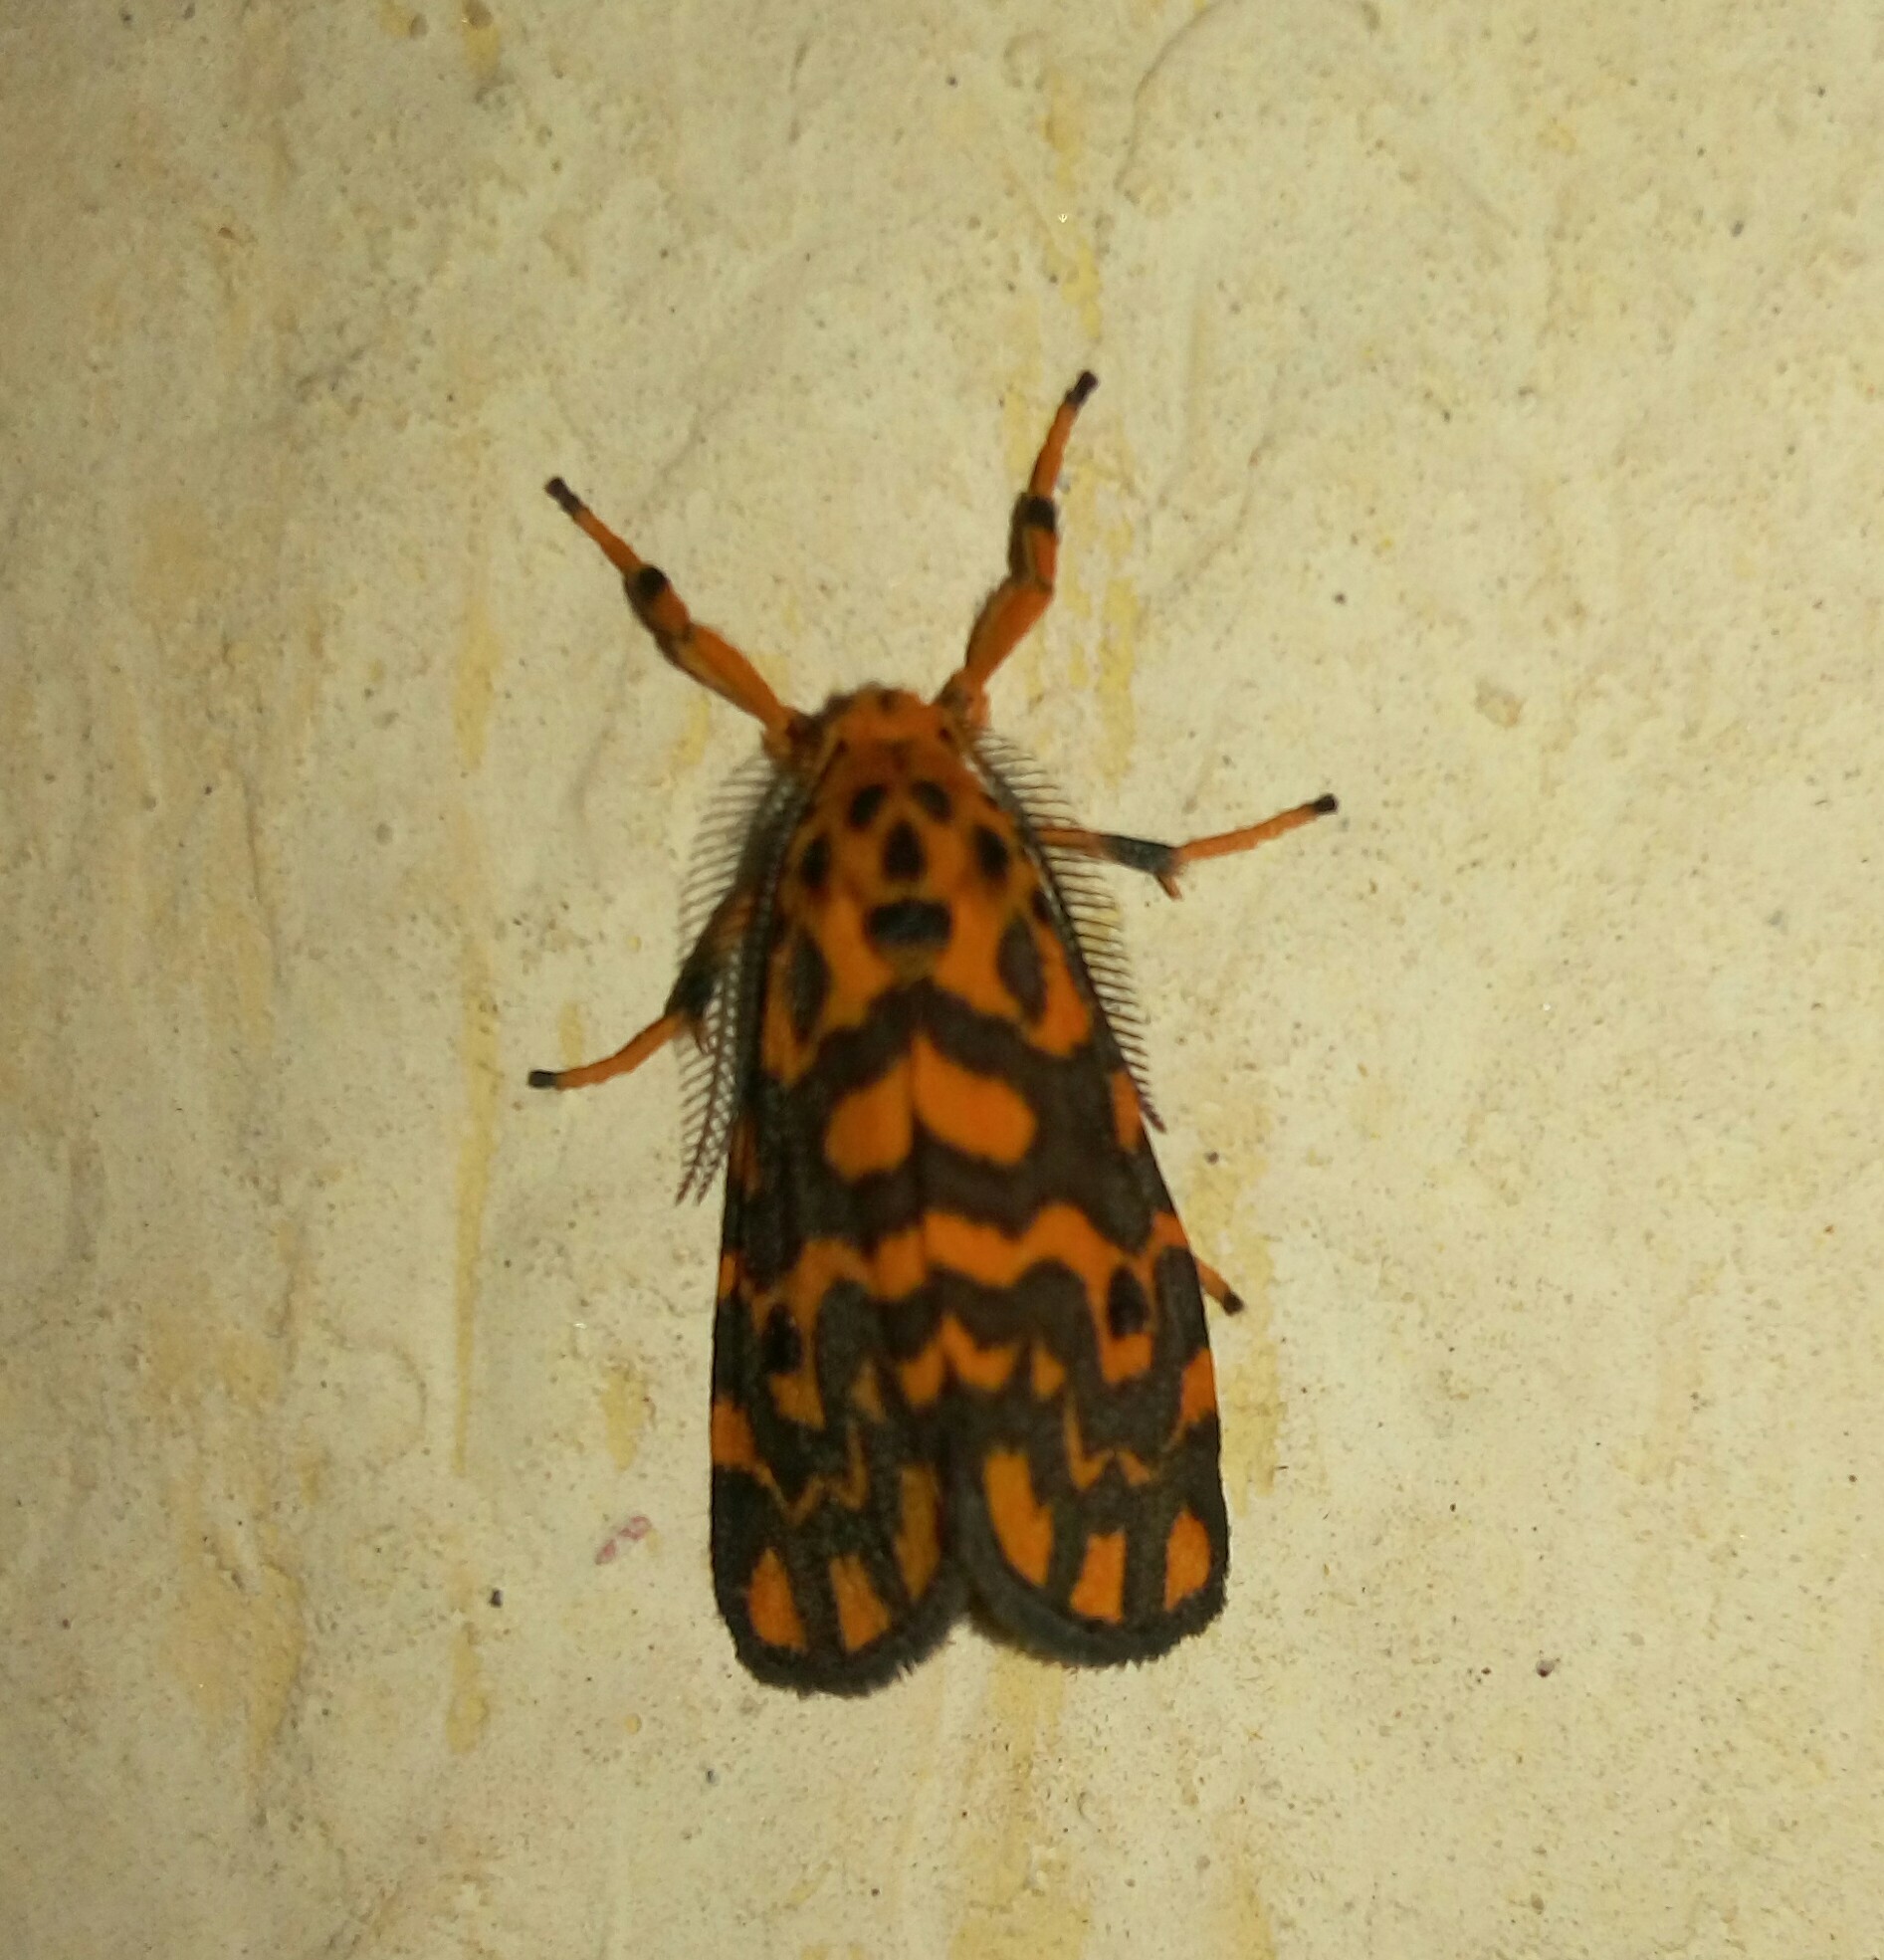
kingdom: Animalia
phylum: Arthropoda
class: Insecta
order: Lepidoptera
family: Erebidae
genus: Nepita
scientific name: Nepita conferta
